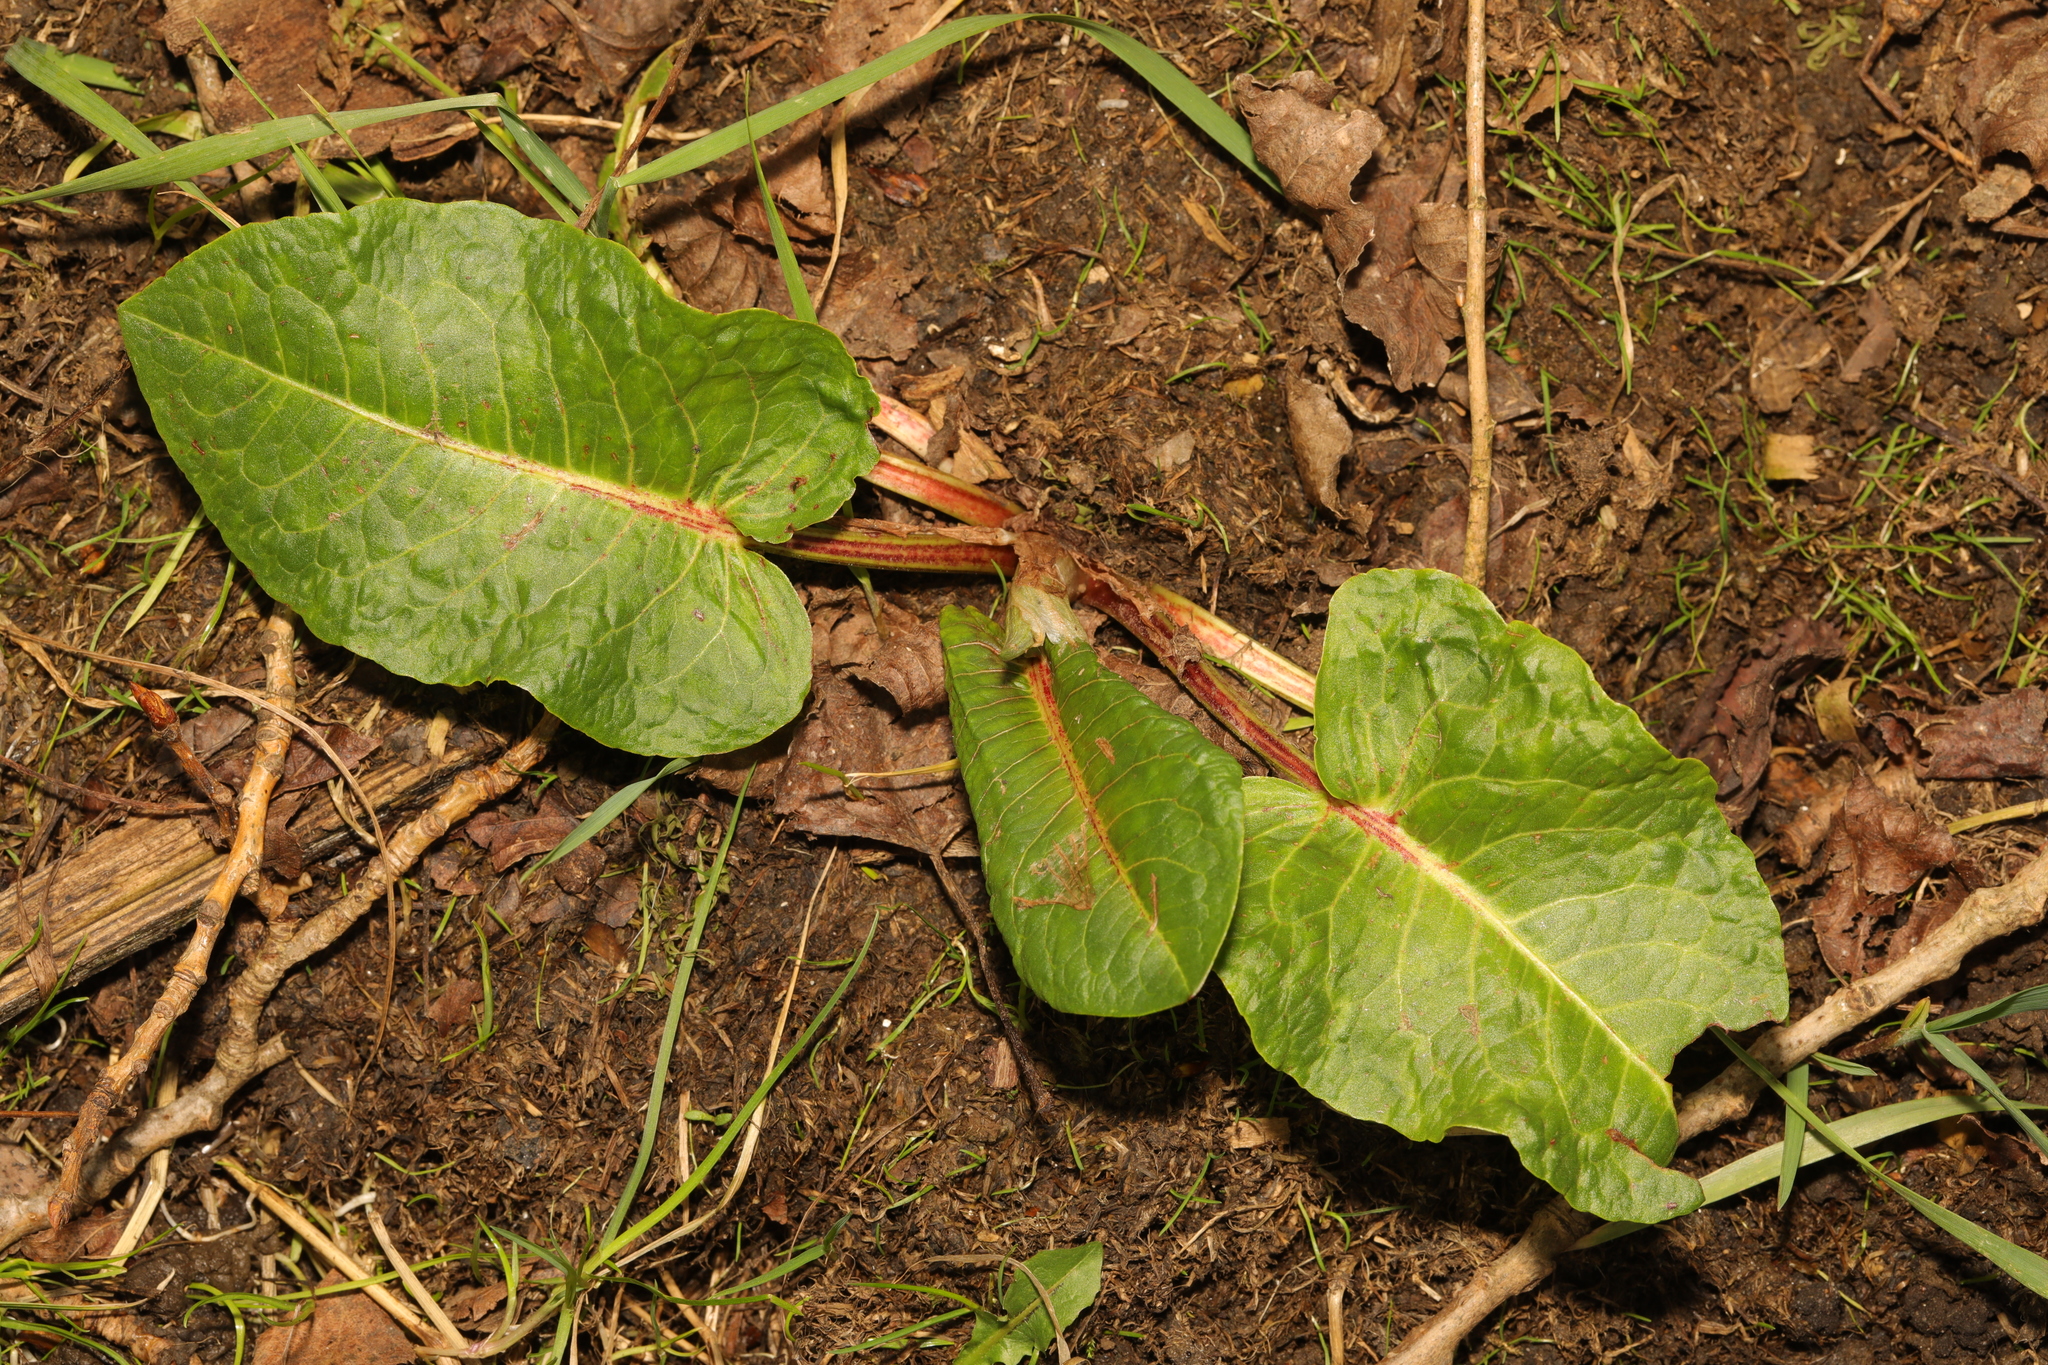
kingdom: Plantae
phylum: Tracheophyta
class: Magnoliopsida
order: Caryophyllales
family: Polygonaceae
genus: Rumex
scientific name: Rumex obtusifolius
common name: Bitter dock
